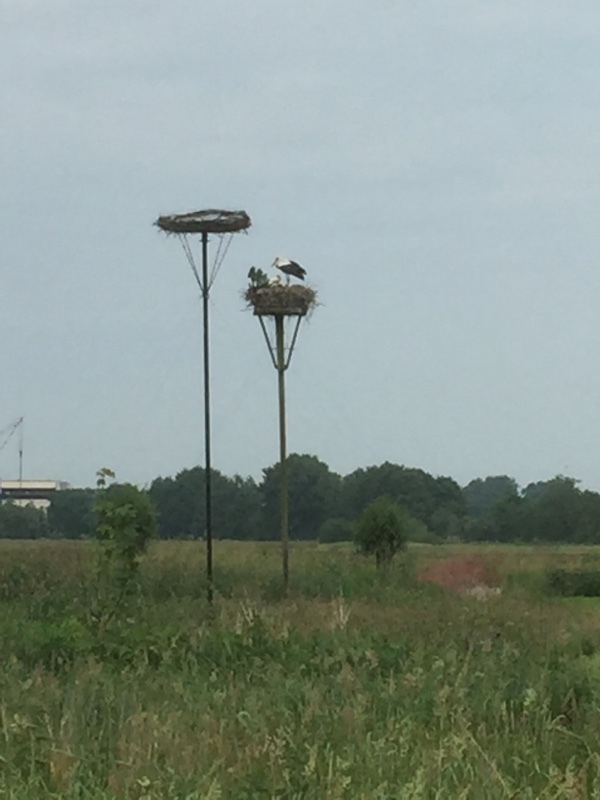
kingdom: Animalia
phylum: Chordata
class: Aves
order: Ciconiiformes
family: Ciconiidae
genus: Ciconia
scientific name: Ciconia ciconia
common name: White stork
